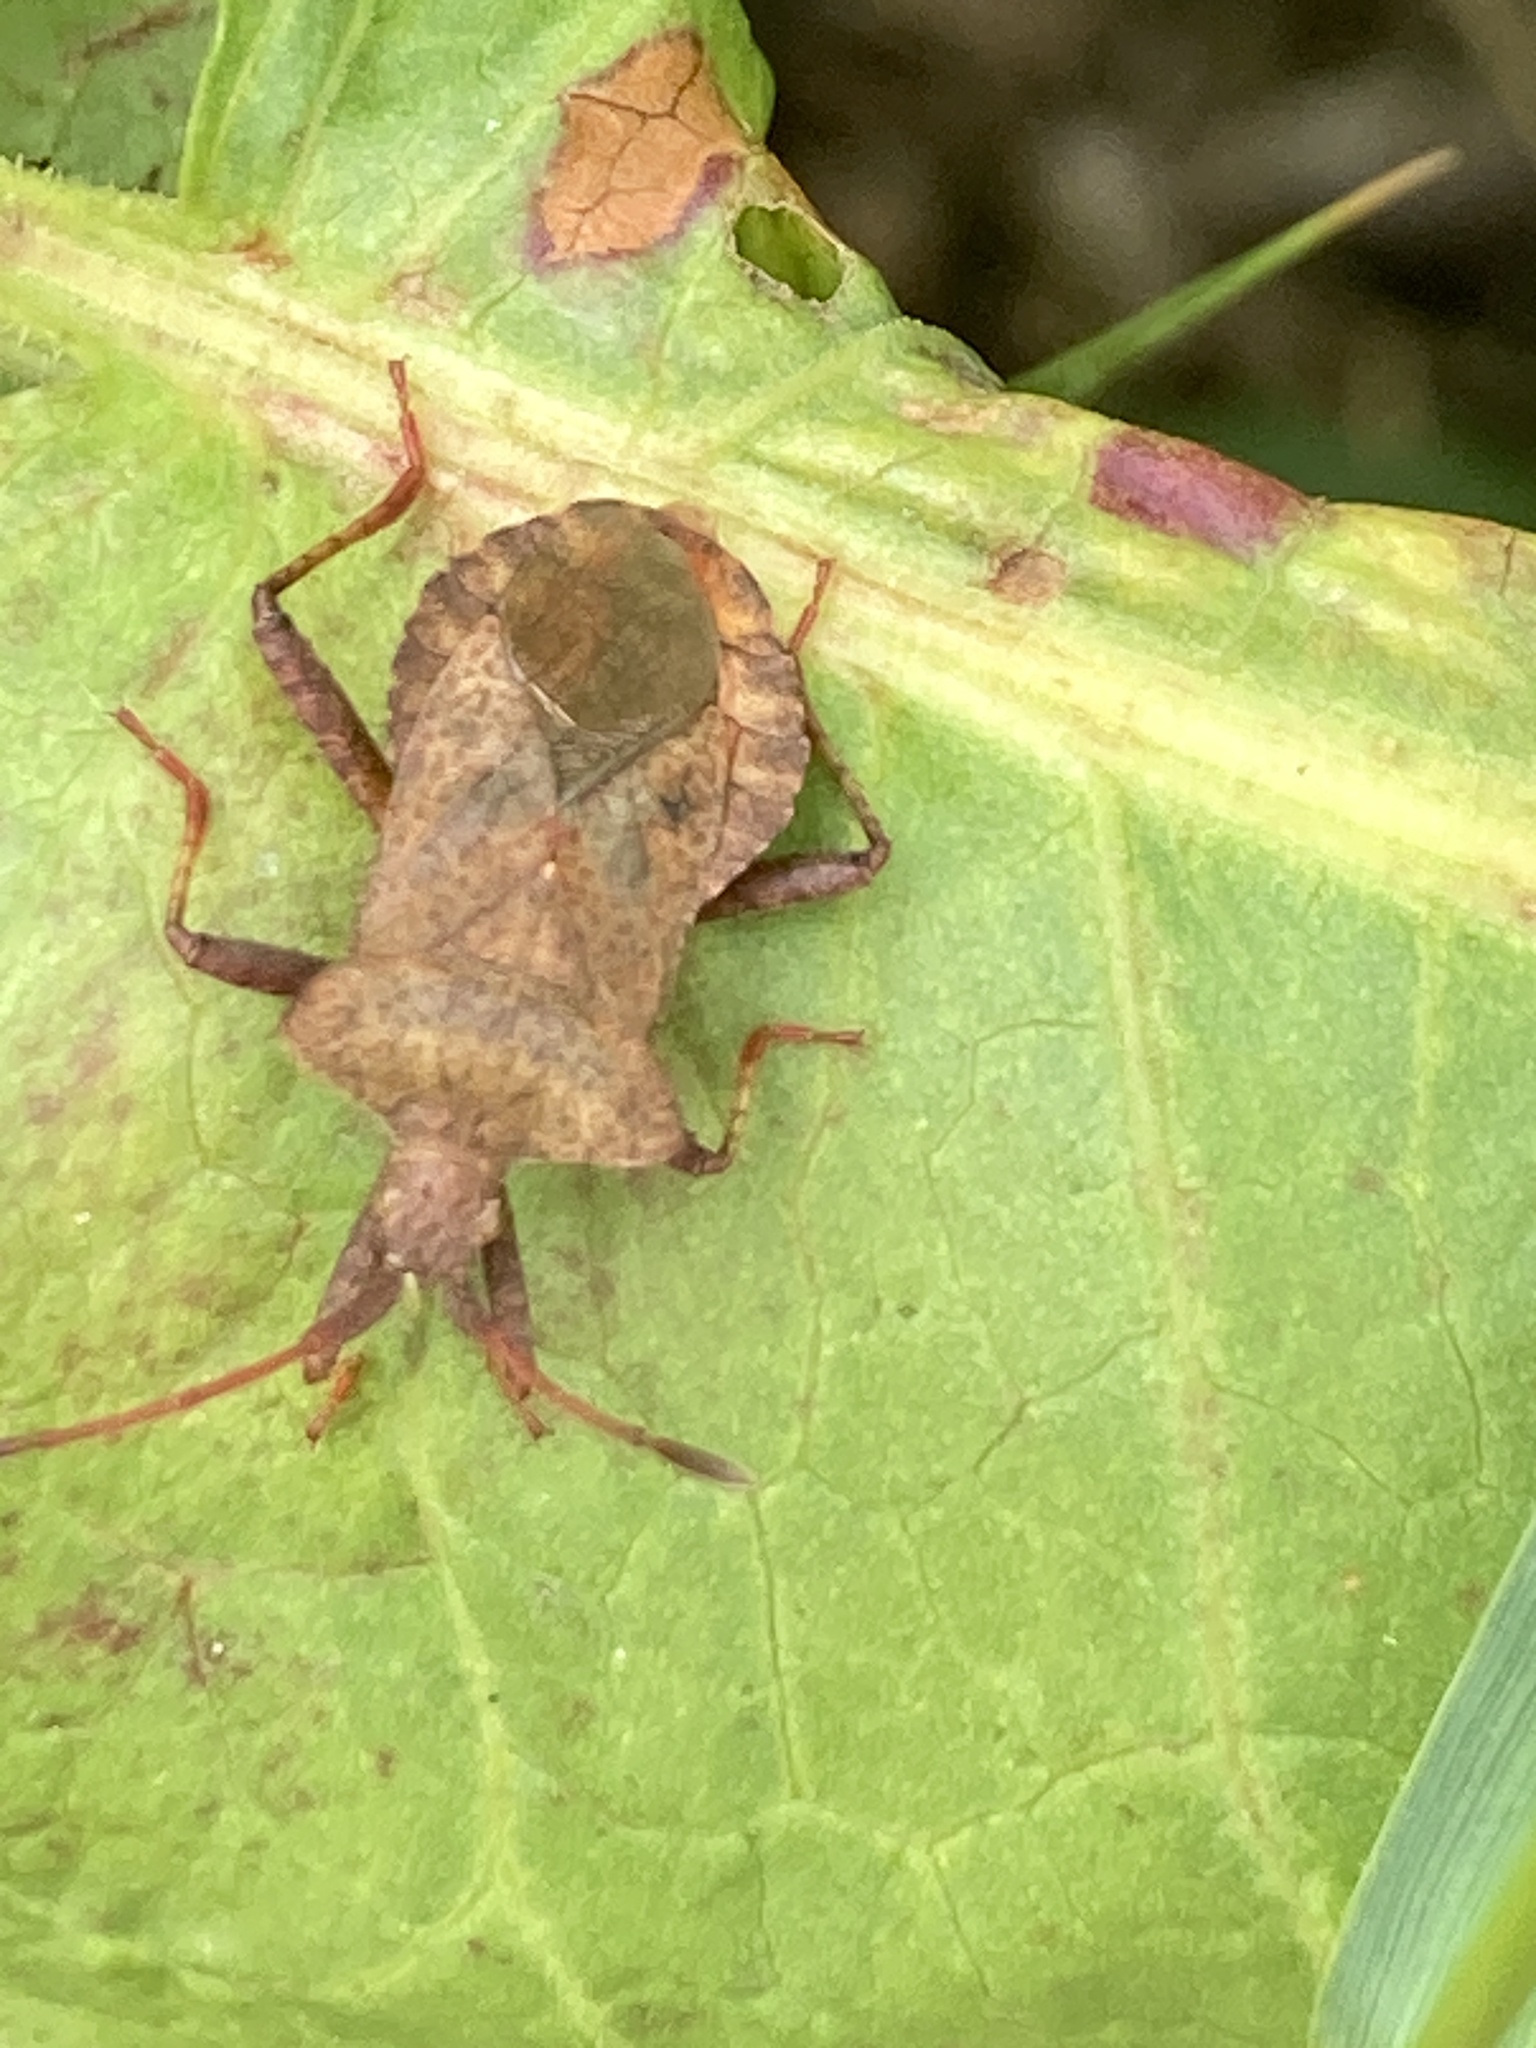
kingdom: Animalia
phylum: Arthropoda
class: Insecta
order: Hemiptera
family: Coreidae
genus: Coreus
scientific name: Coreus marginatus
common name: Dock bug
